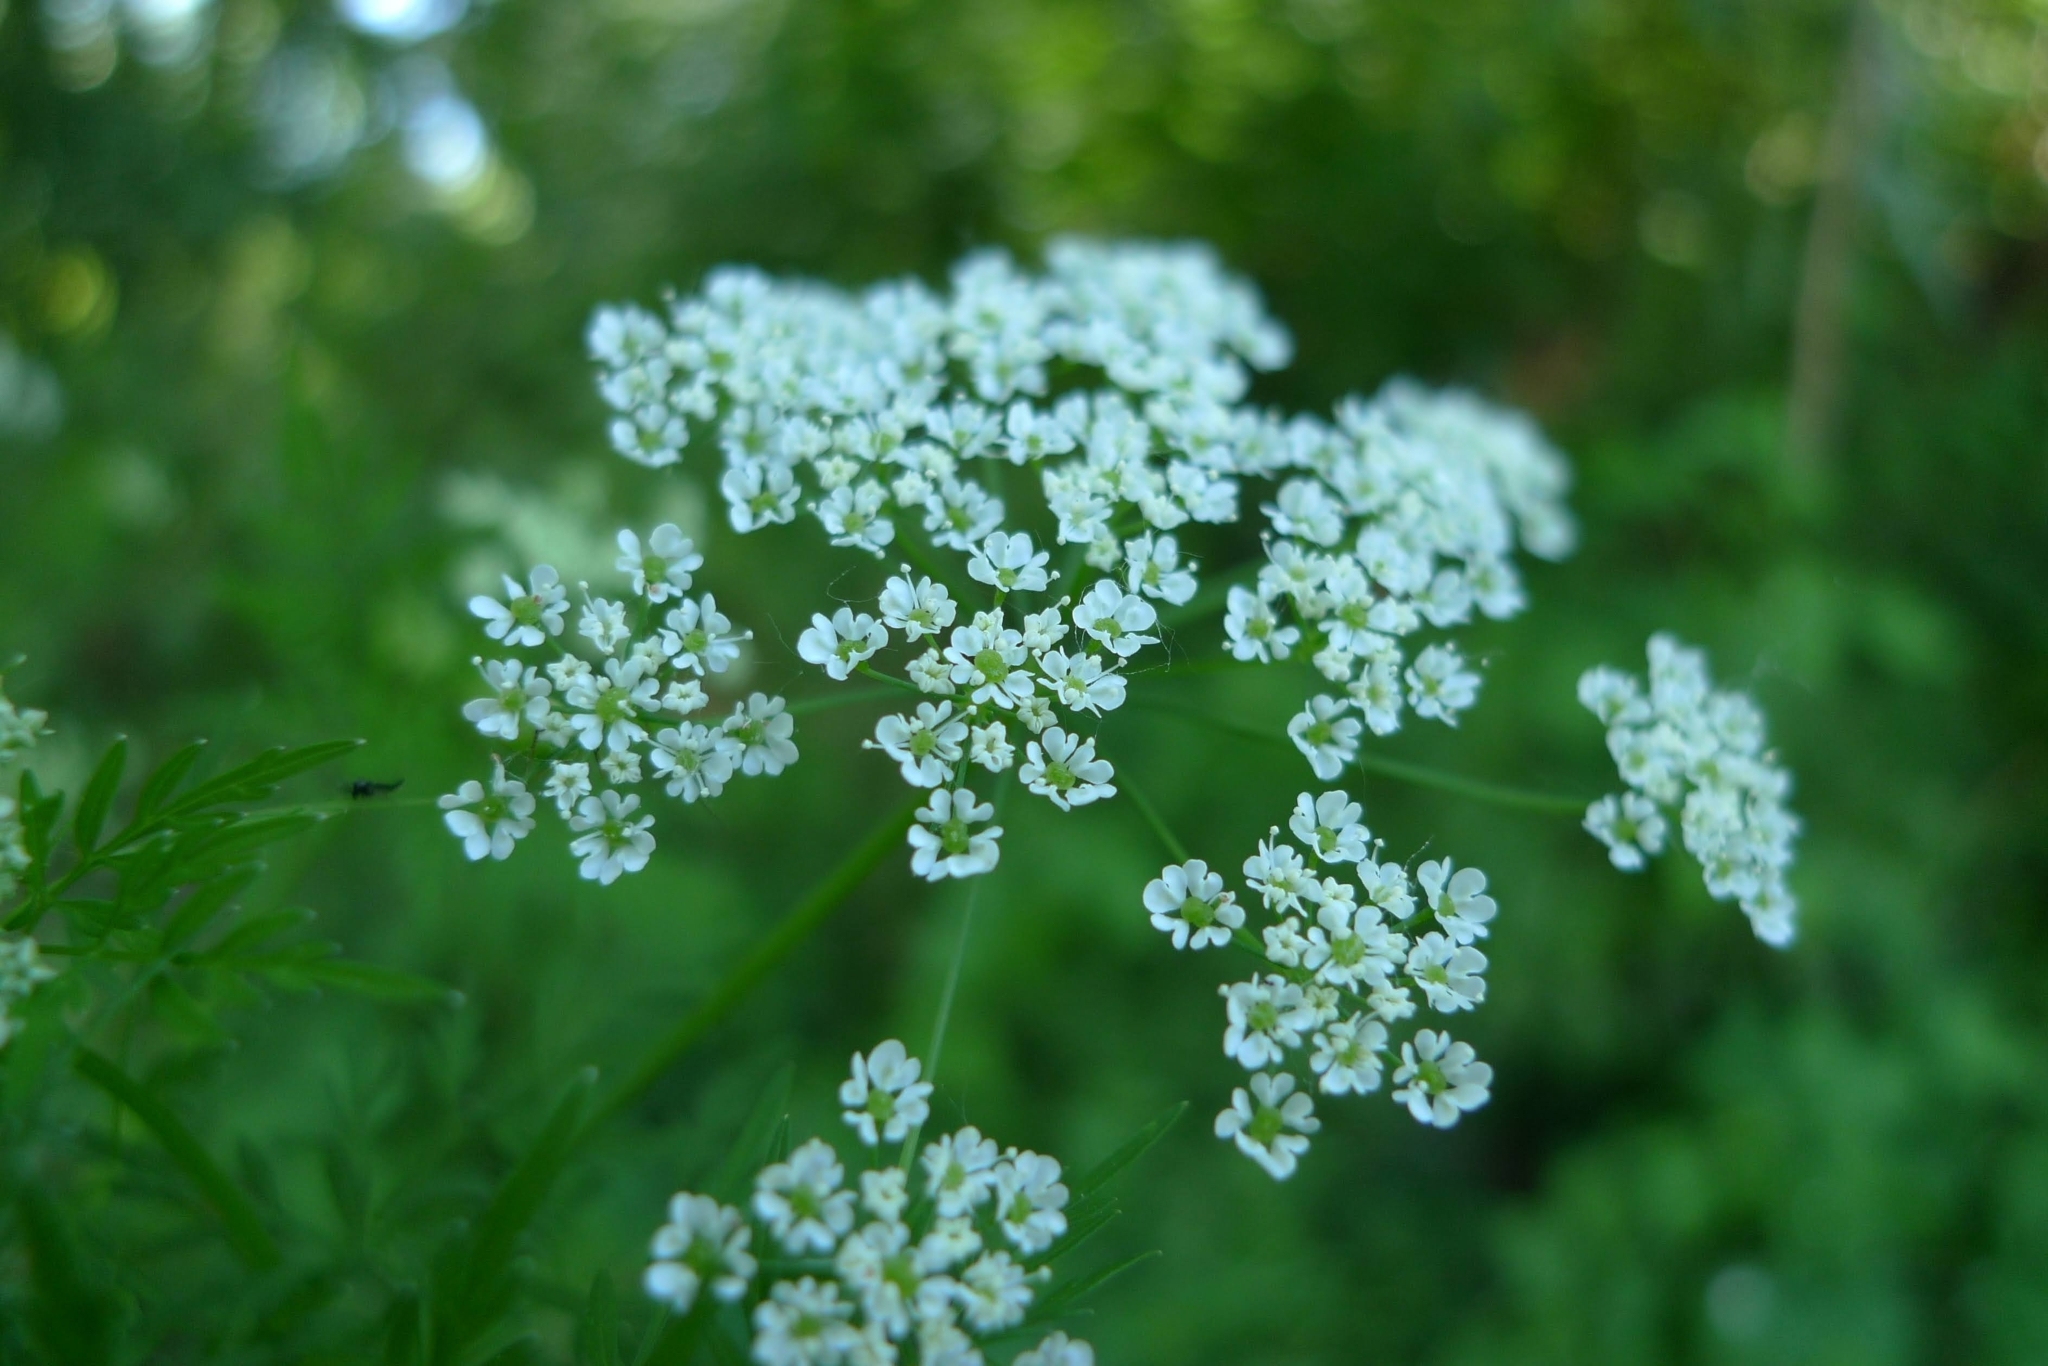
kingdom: Plantae
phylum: Tracheophyta
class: Magnoliopsida
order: Apiales
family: Apiaceae
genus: Chaerophyllum
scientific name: Chaerophyllum bulbosum
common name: Bulbous chervil
